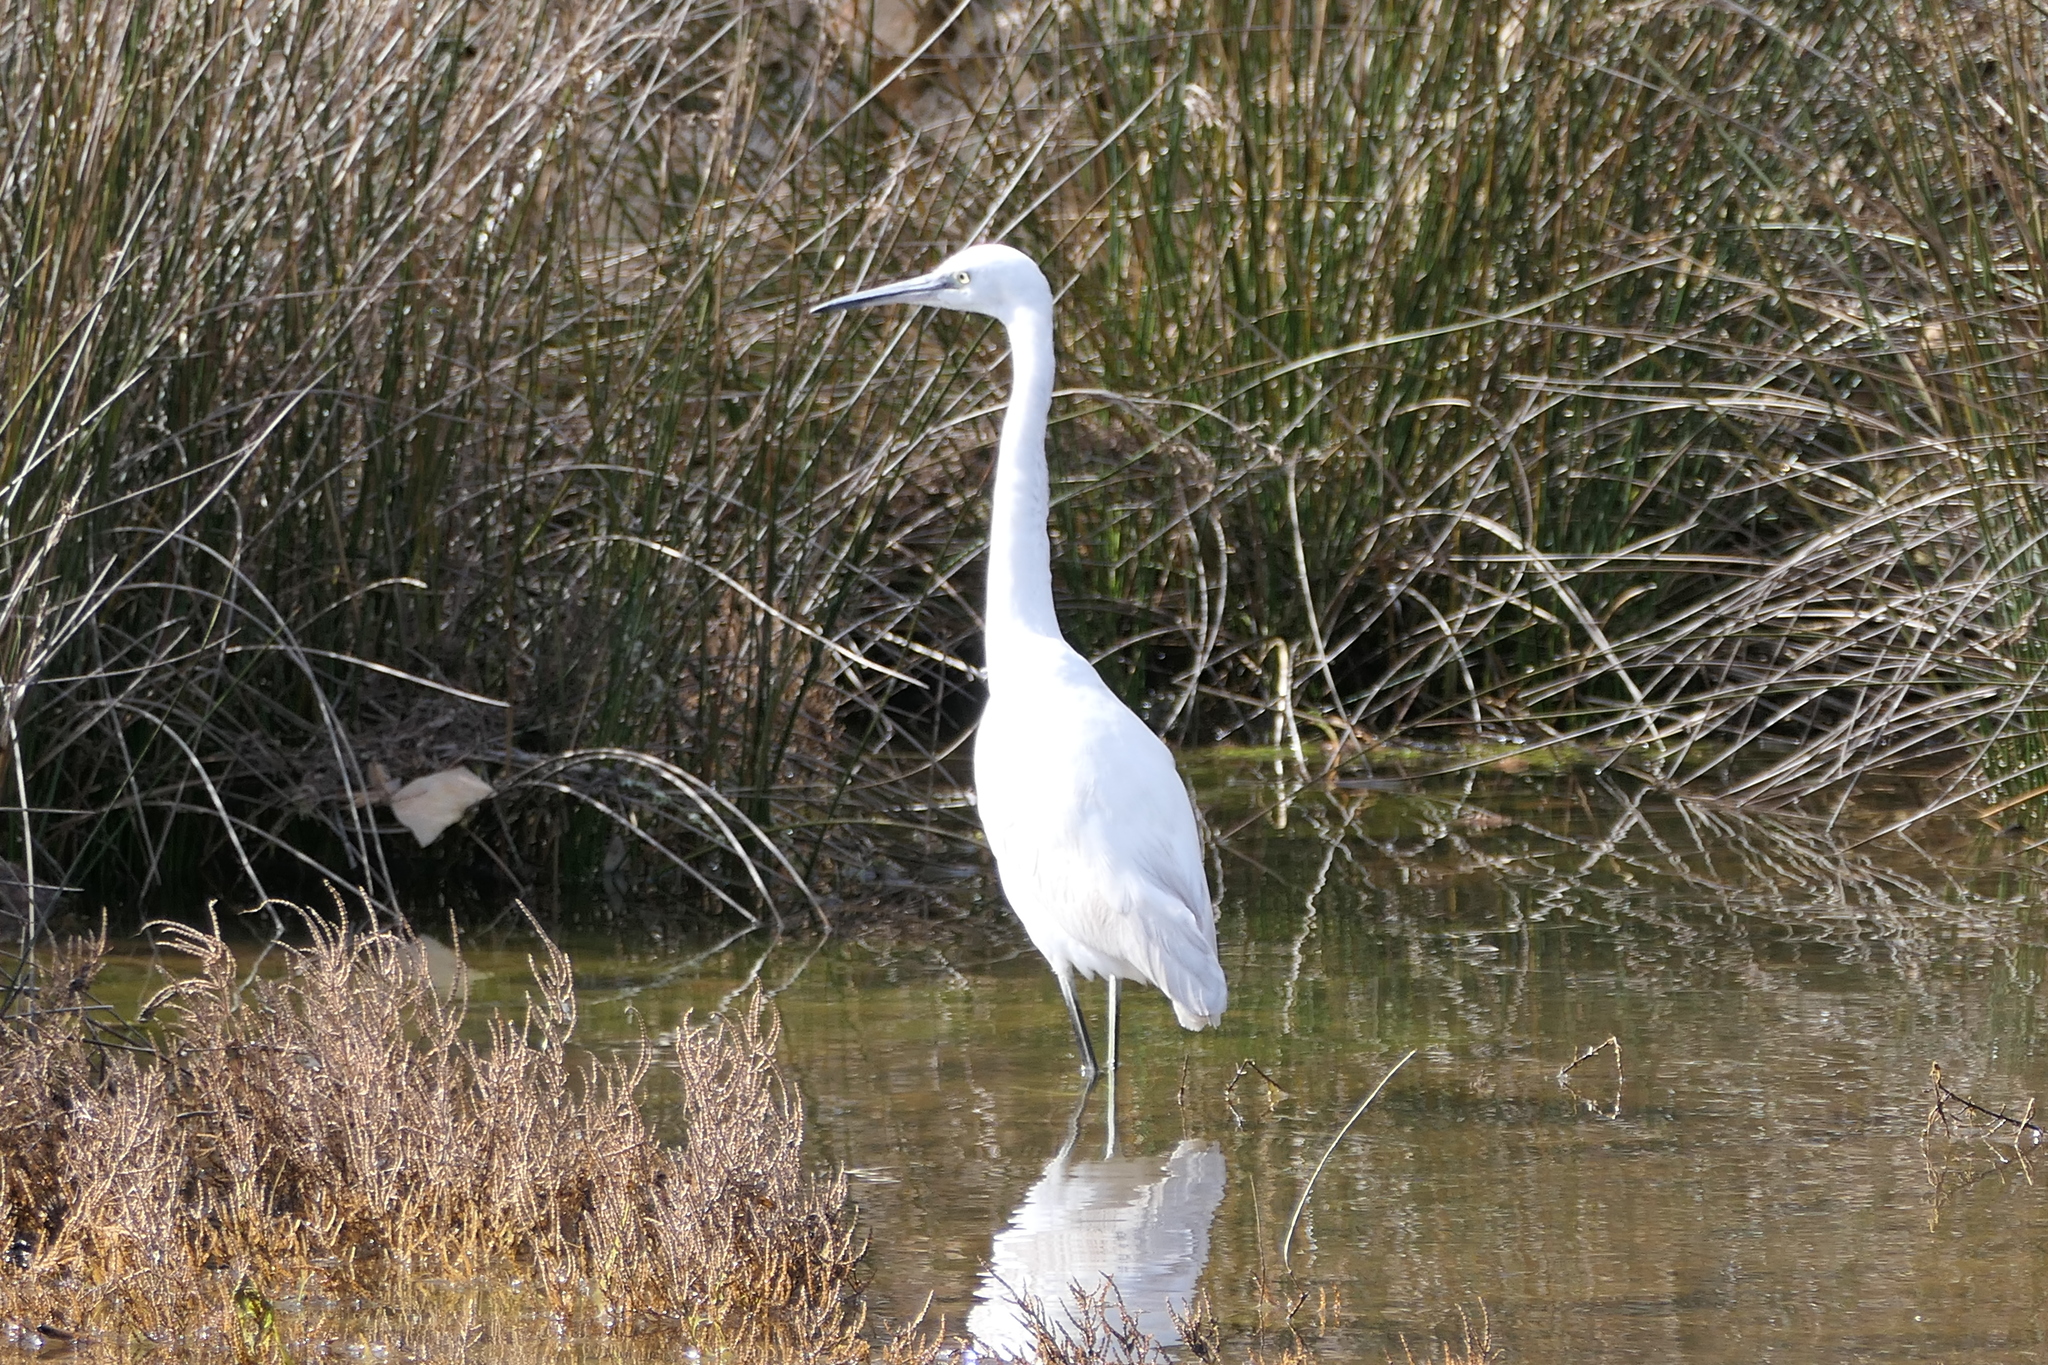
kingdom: Animalia
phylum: Chordata
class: Aves
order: Pelecaniformes
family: Ardeidae
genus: Egretta
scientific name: Egretta garzetta
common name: Little egret
